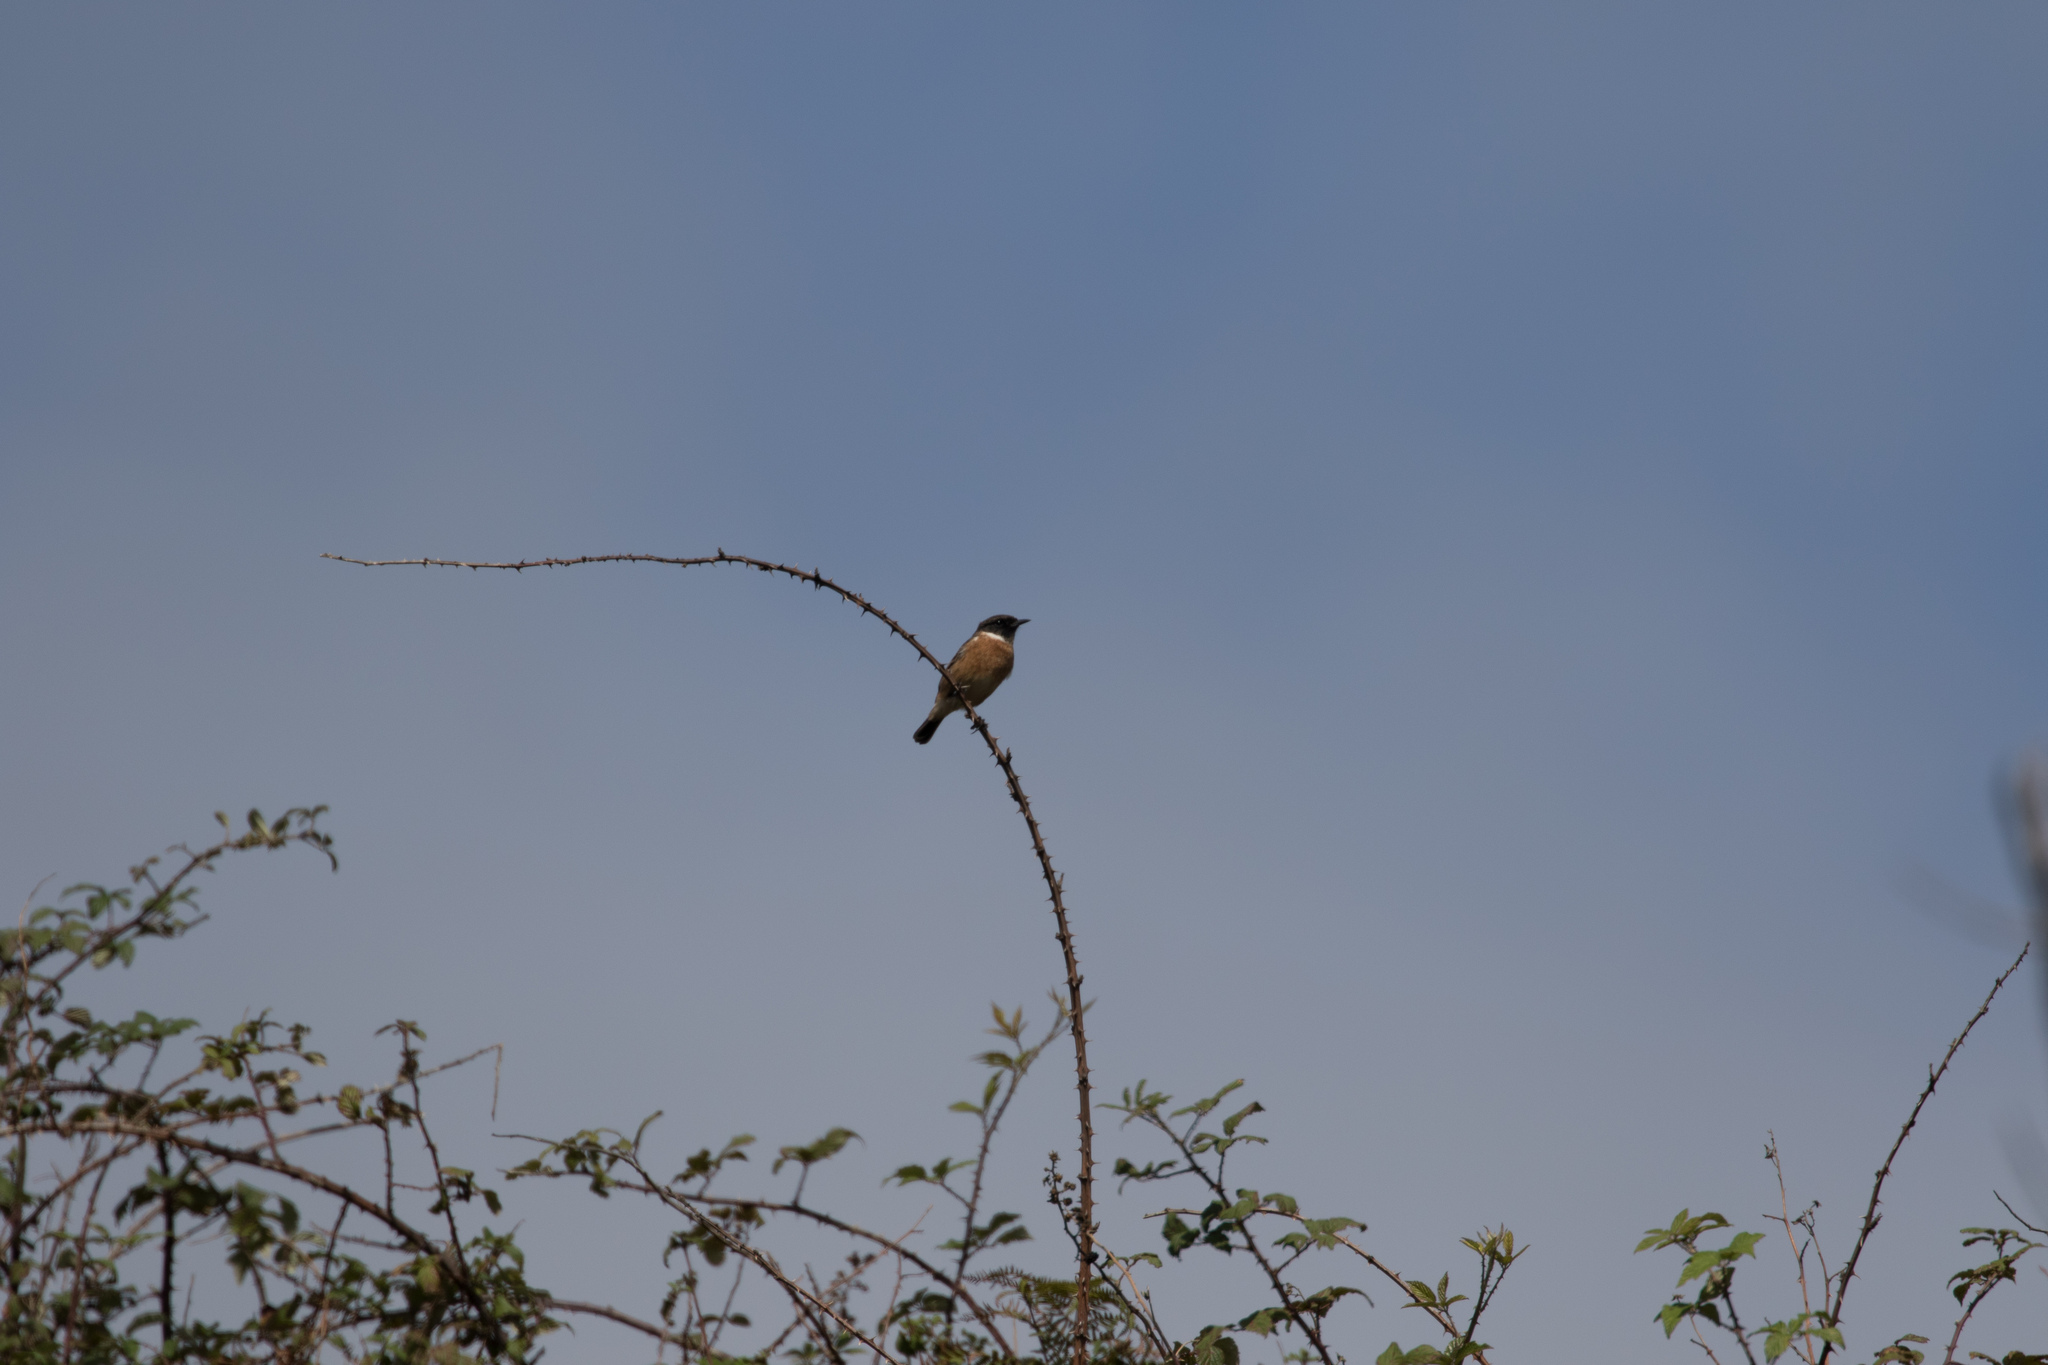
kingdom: Animalia
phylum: Chordata
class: Aves
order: Passeriformes
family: Muscicapidae
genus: Saxicola
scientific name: Saxicola rubicola
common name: European stonechat
